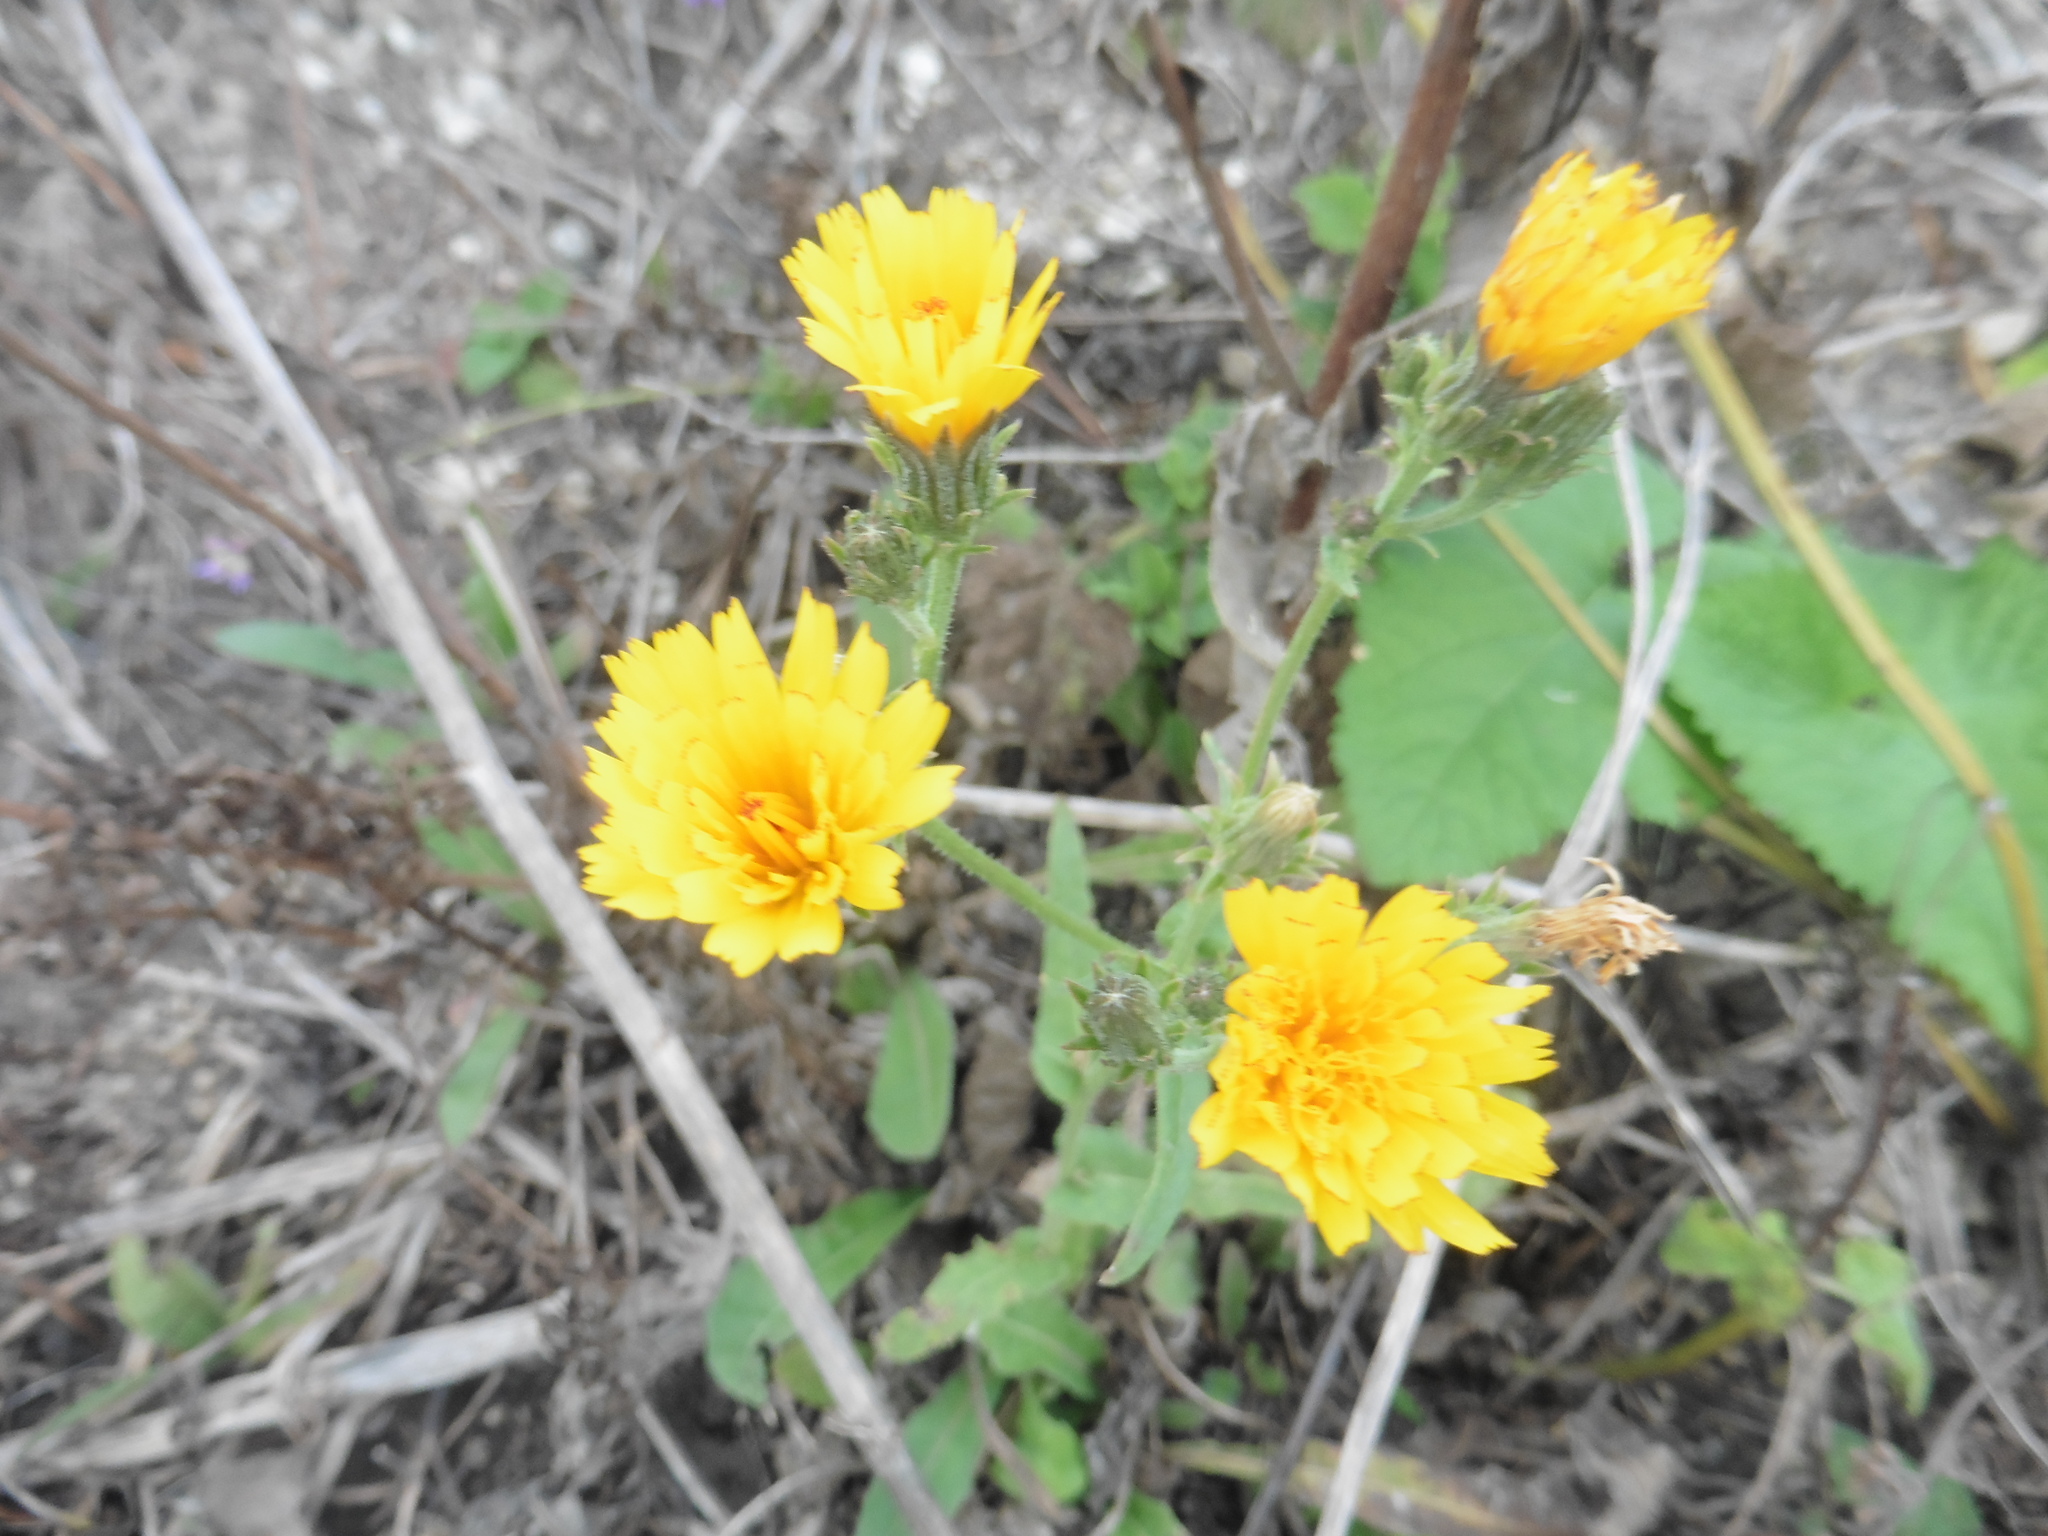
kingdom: Plantae
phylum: Tracheophyta
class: Magnoliopsida
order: Asterales
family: Asteraceae
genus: Picris
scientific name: Picris hieracioides
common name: Hawkweed oxtongue
